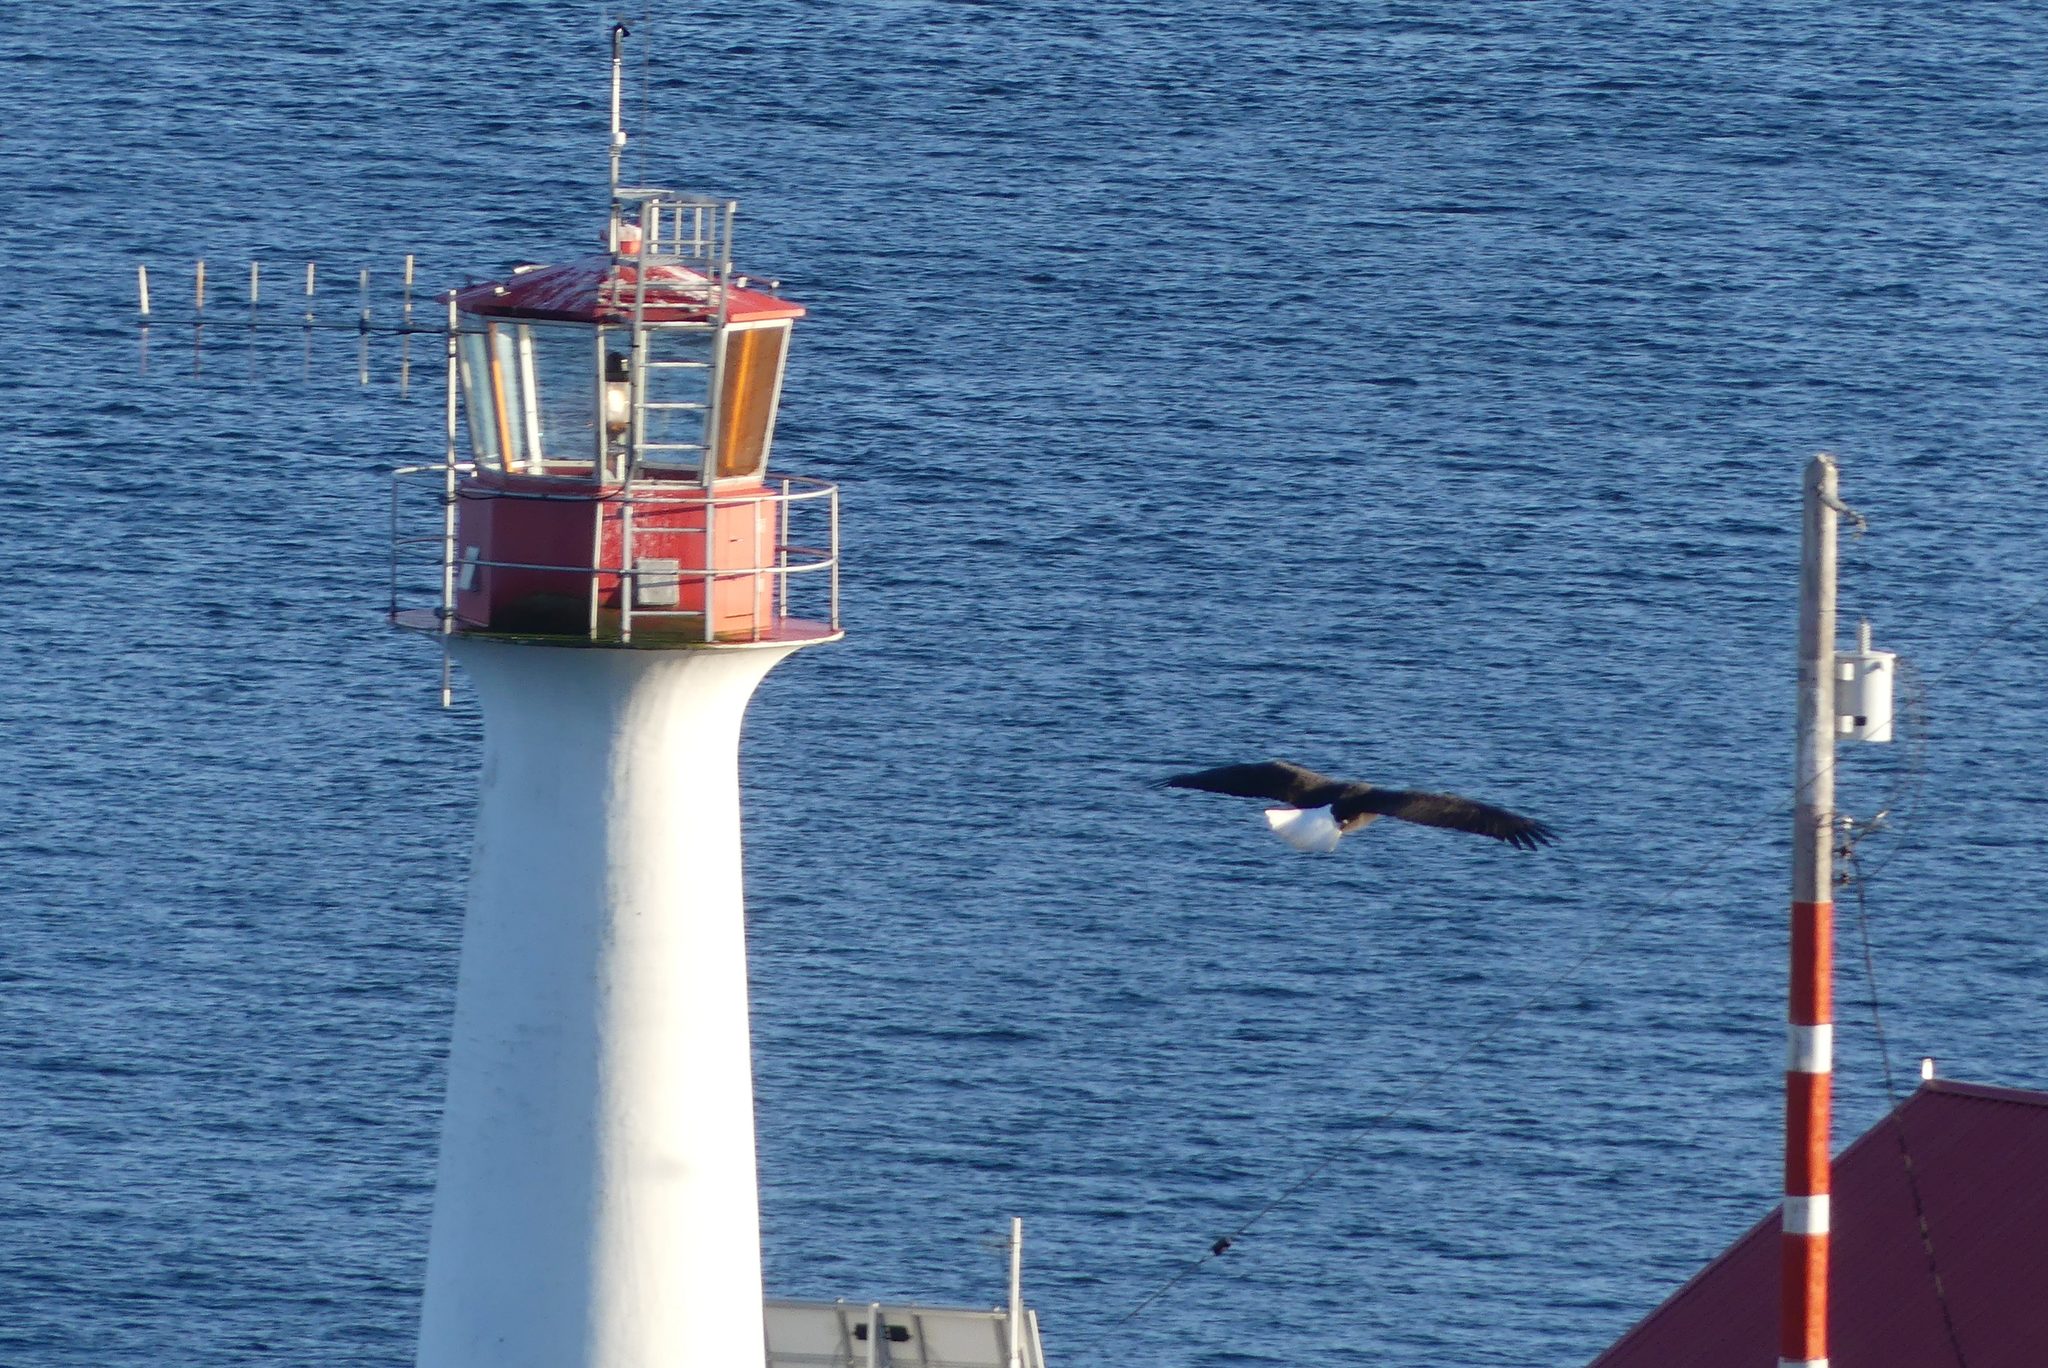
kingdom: Animalia
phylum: Chordata
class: Aves
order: Accipitriformes
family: Accipitridae
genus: Haliaeetus
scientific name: Haliaeetus leucocephalus
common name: Bald eagle
